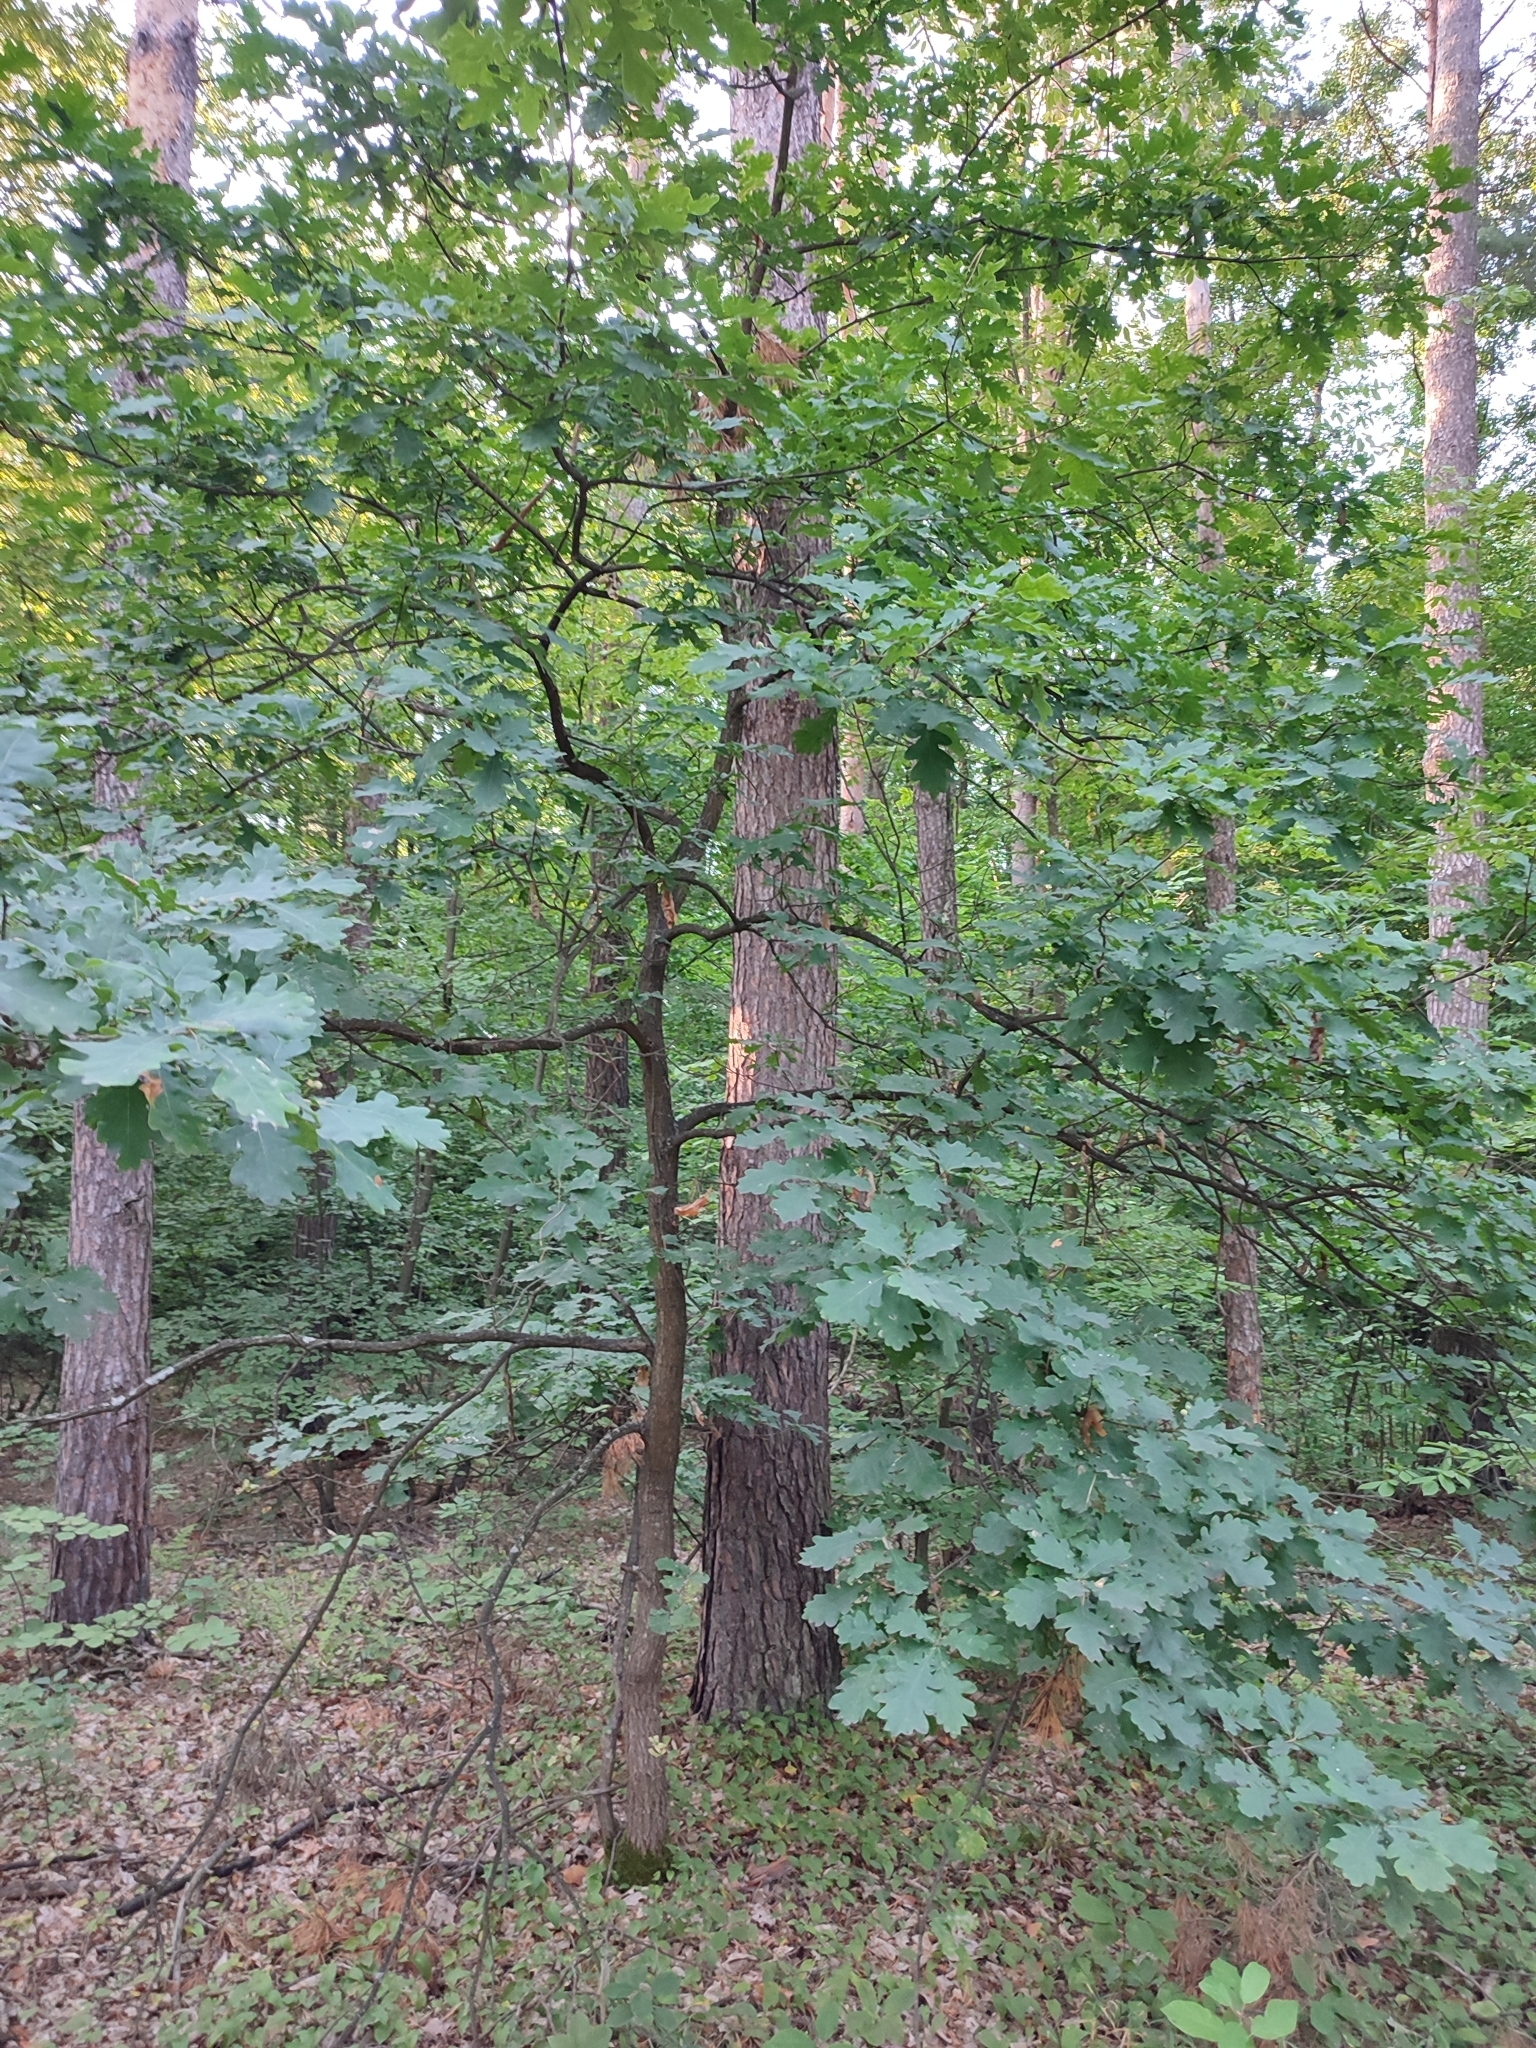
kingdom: Plantae
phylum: Tracheophyta
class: Magnoliopsida
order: Fagales
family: Fagaceae
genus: Quercus
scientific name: Quercus robur
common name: Pedunculate oak
